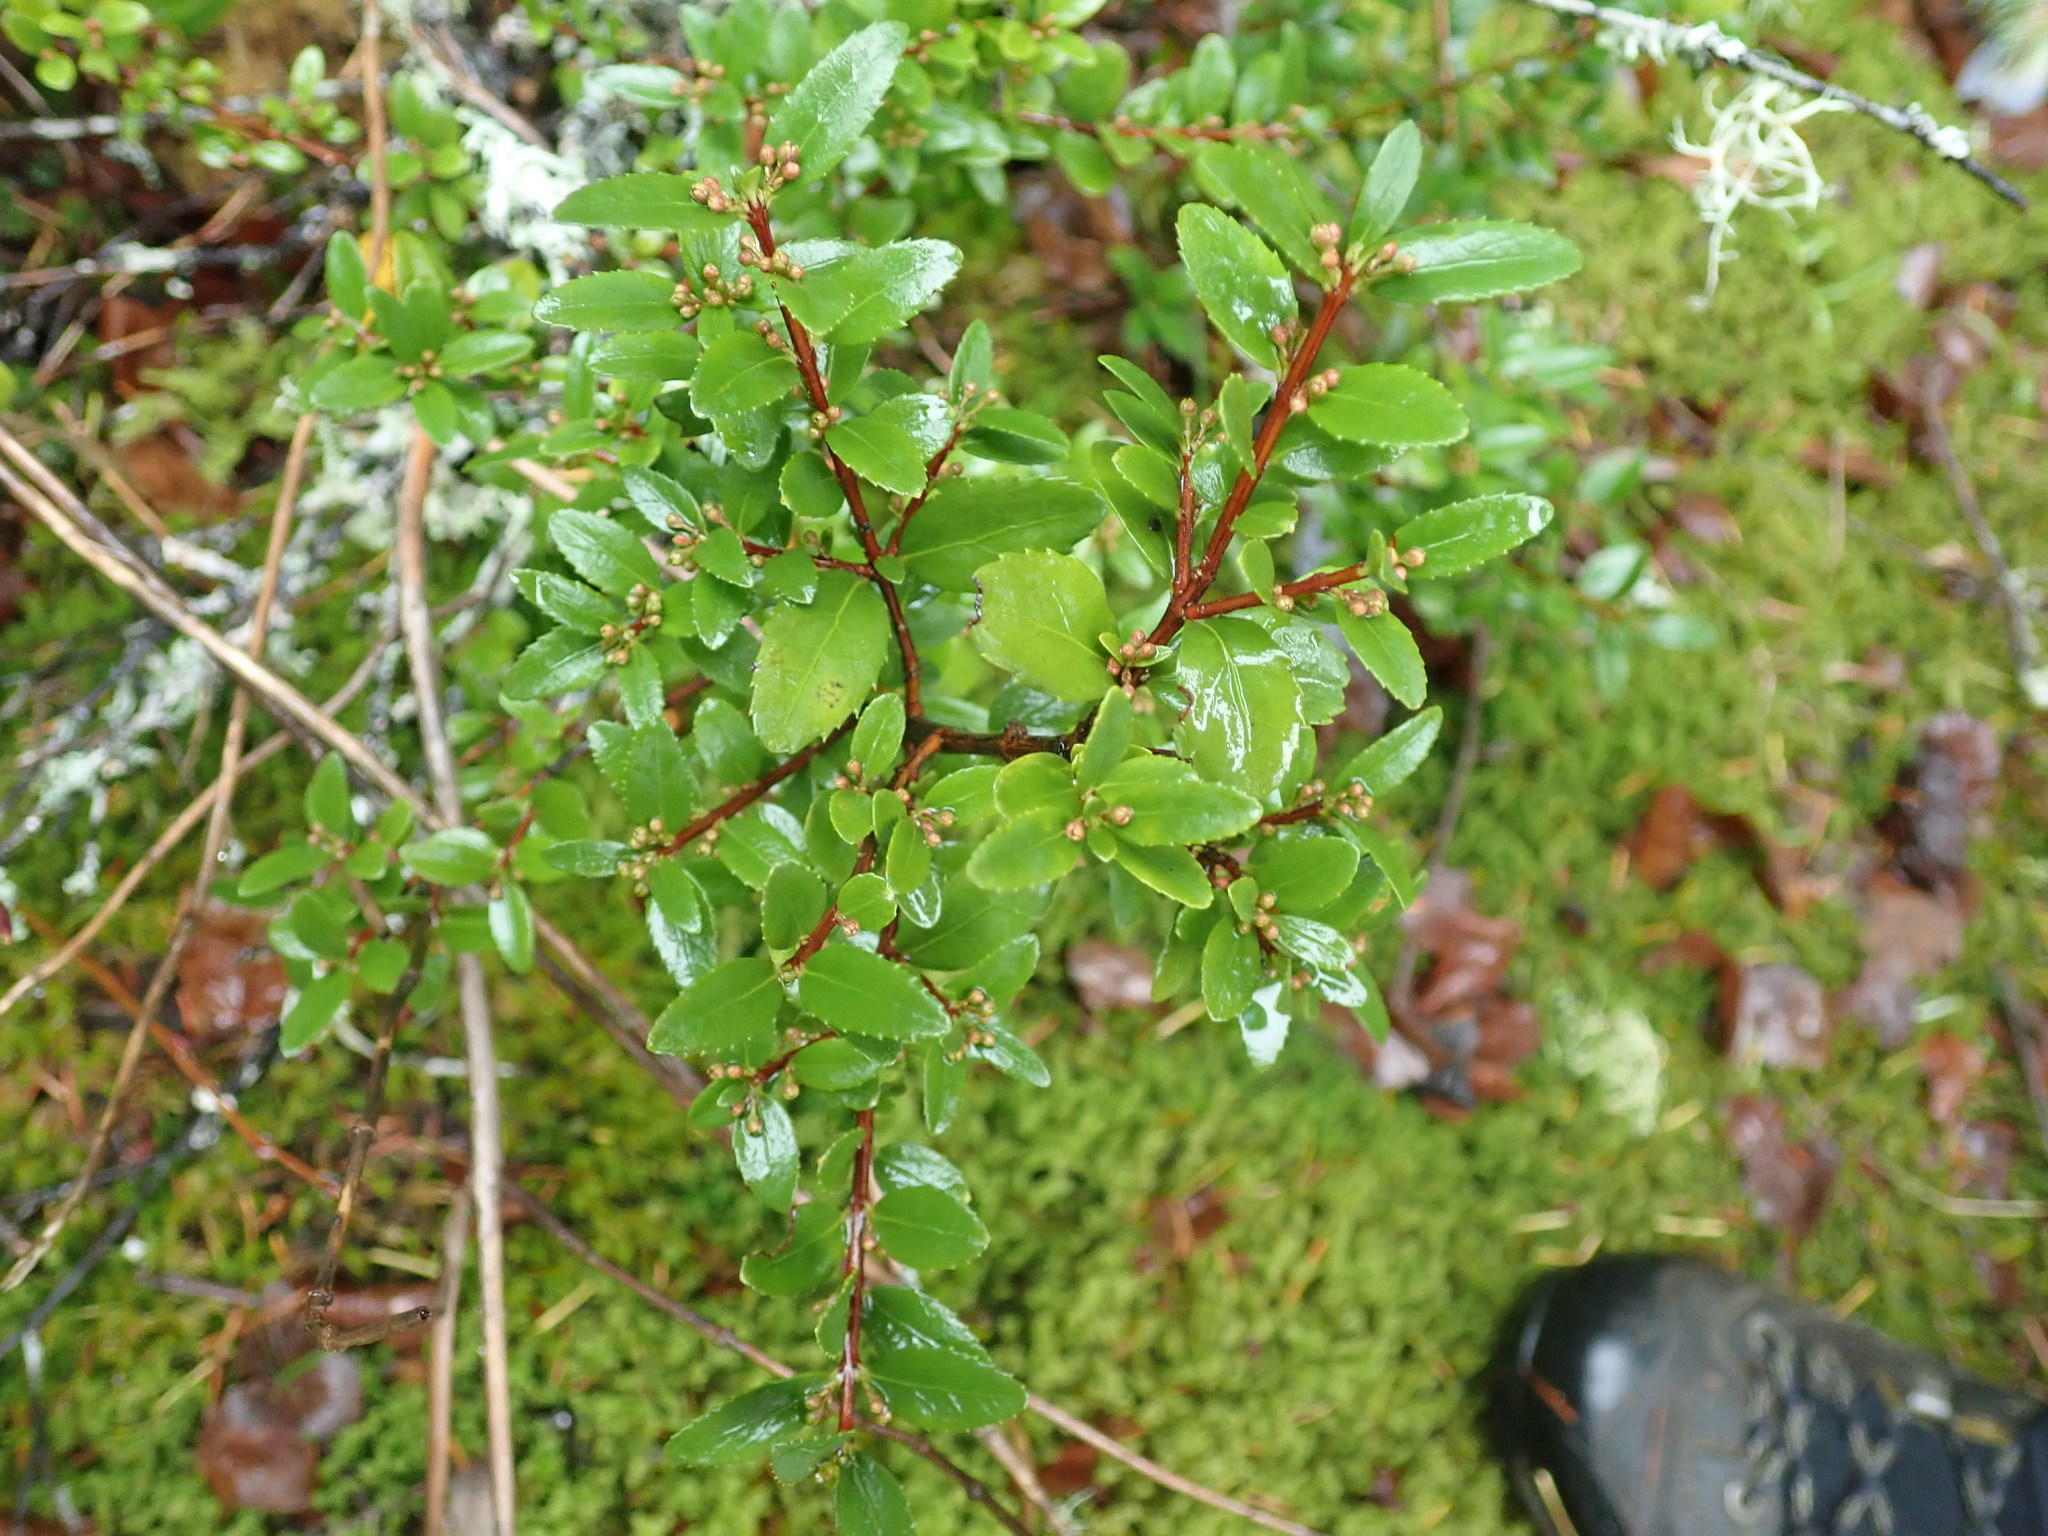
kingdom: Plantae
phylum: Tracheophyta
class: Magnoliopsida
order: Celastrales
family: Celastraceae
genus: Paxistima
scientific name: Paxistima myrsinites
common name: Mountain-lover
